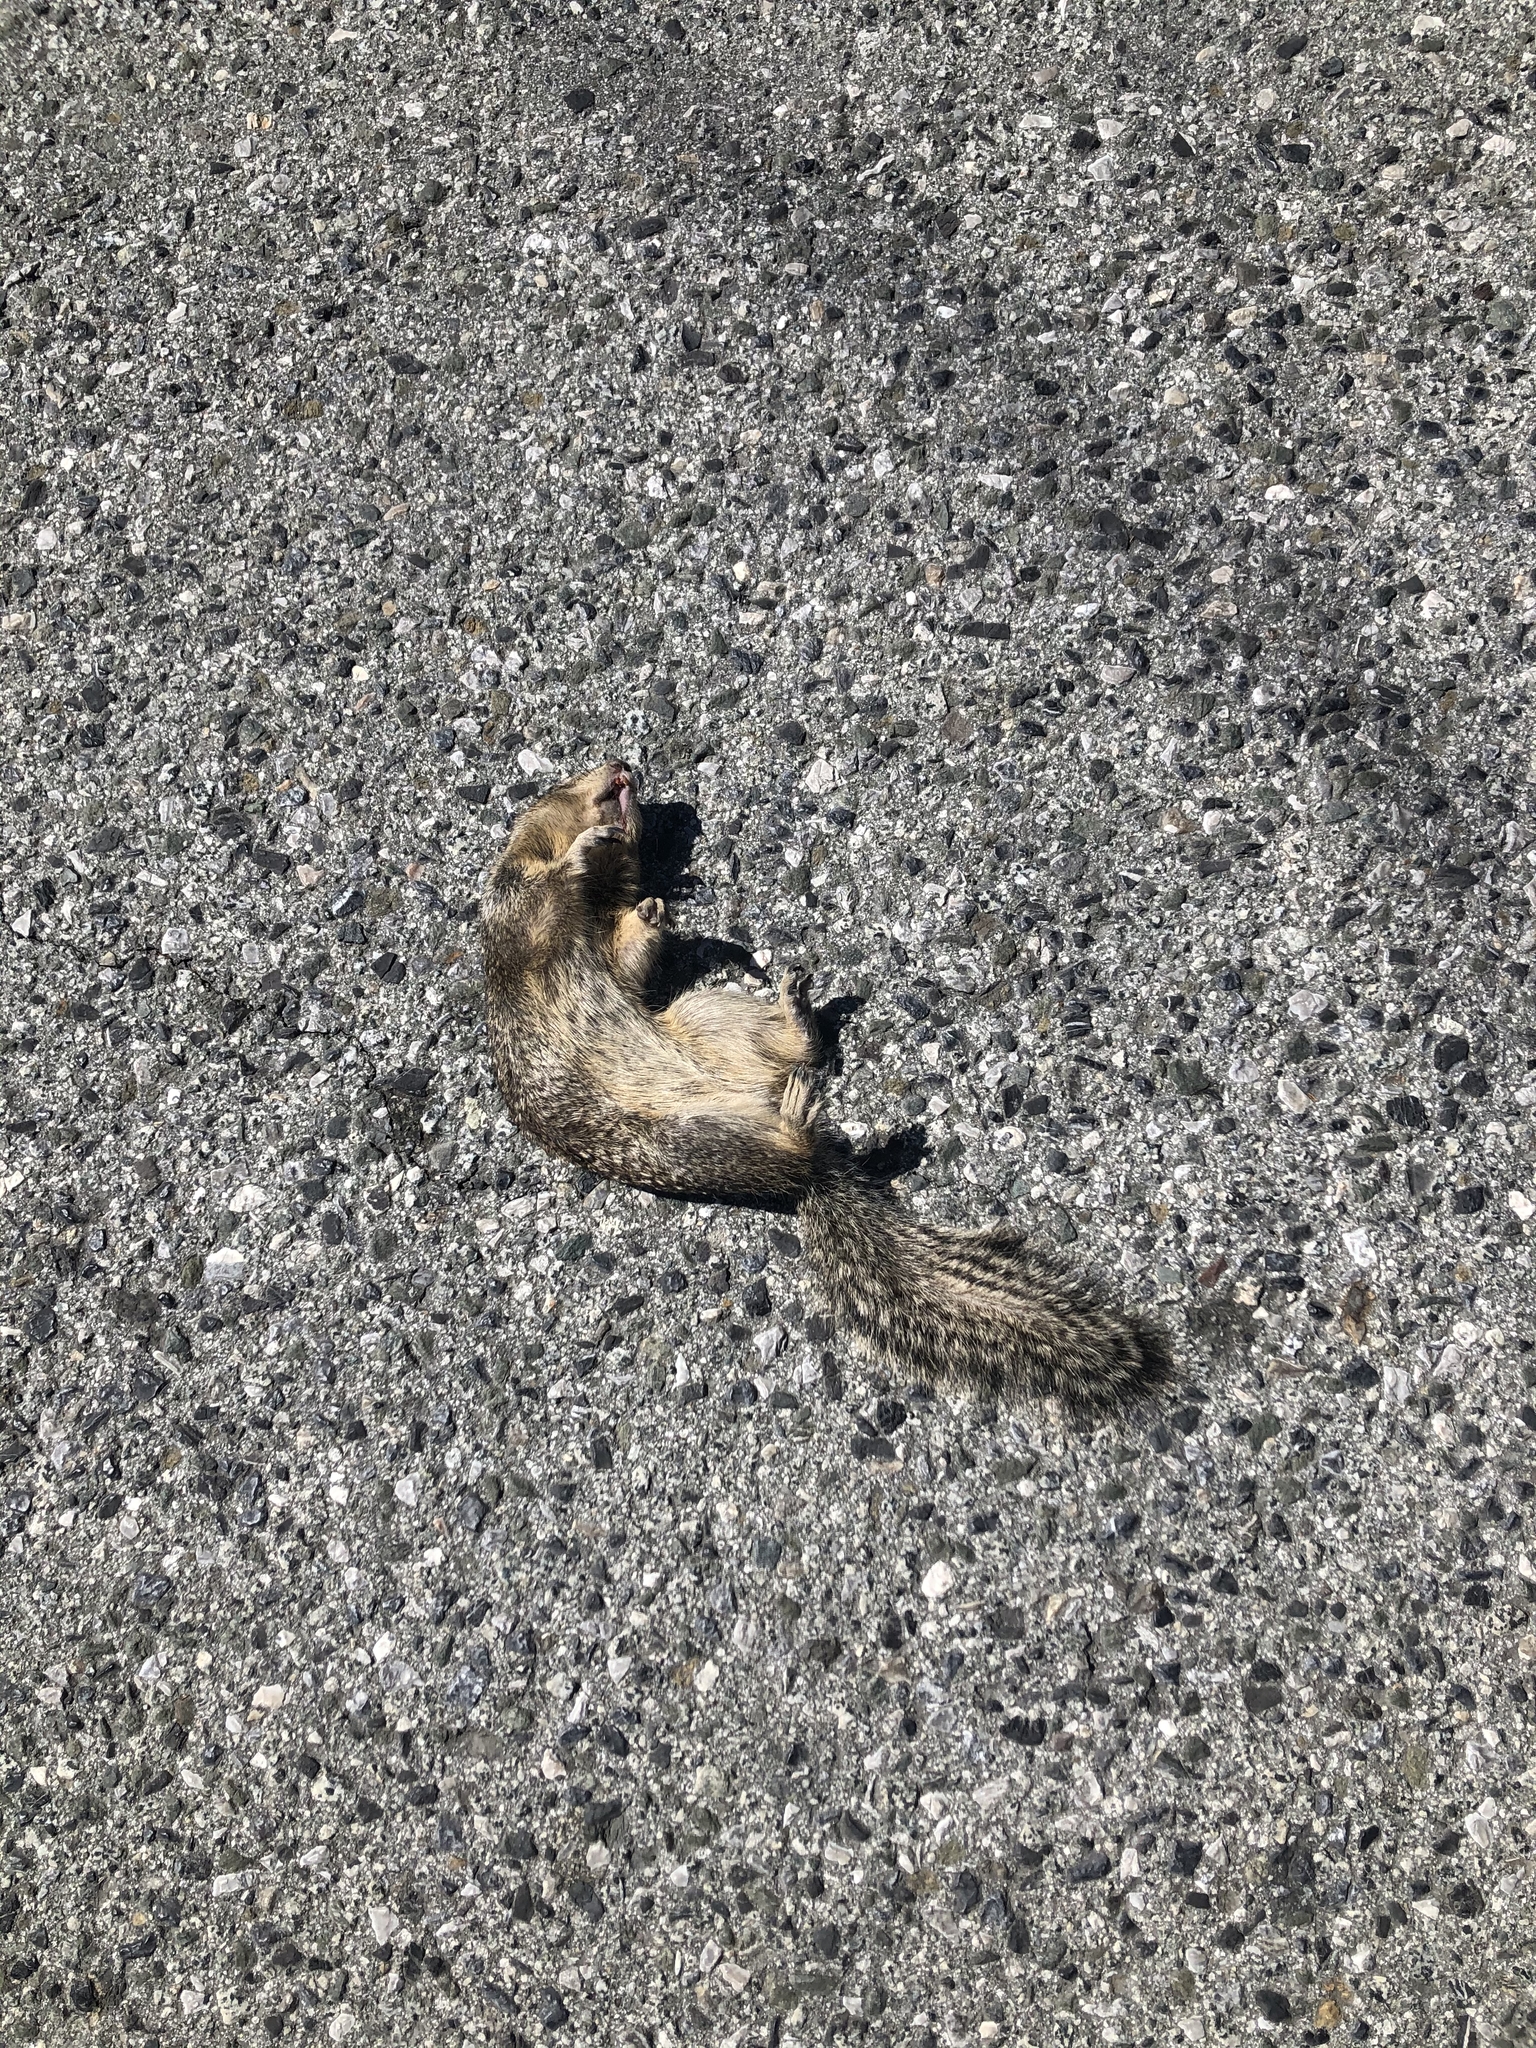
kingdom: Animalia
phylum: Chordata
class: Mammalia
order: Rodentia
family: Sciuridae
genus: Otospermophilus
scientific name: Otospermophilus beecheyi
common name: California ground squirrel
